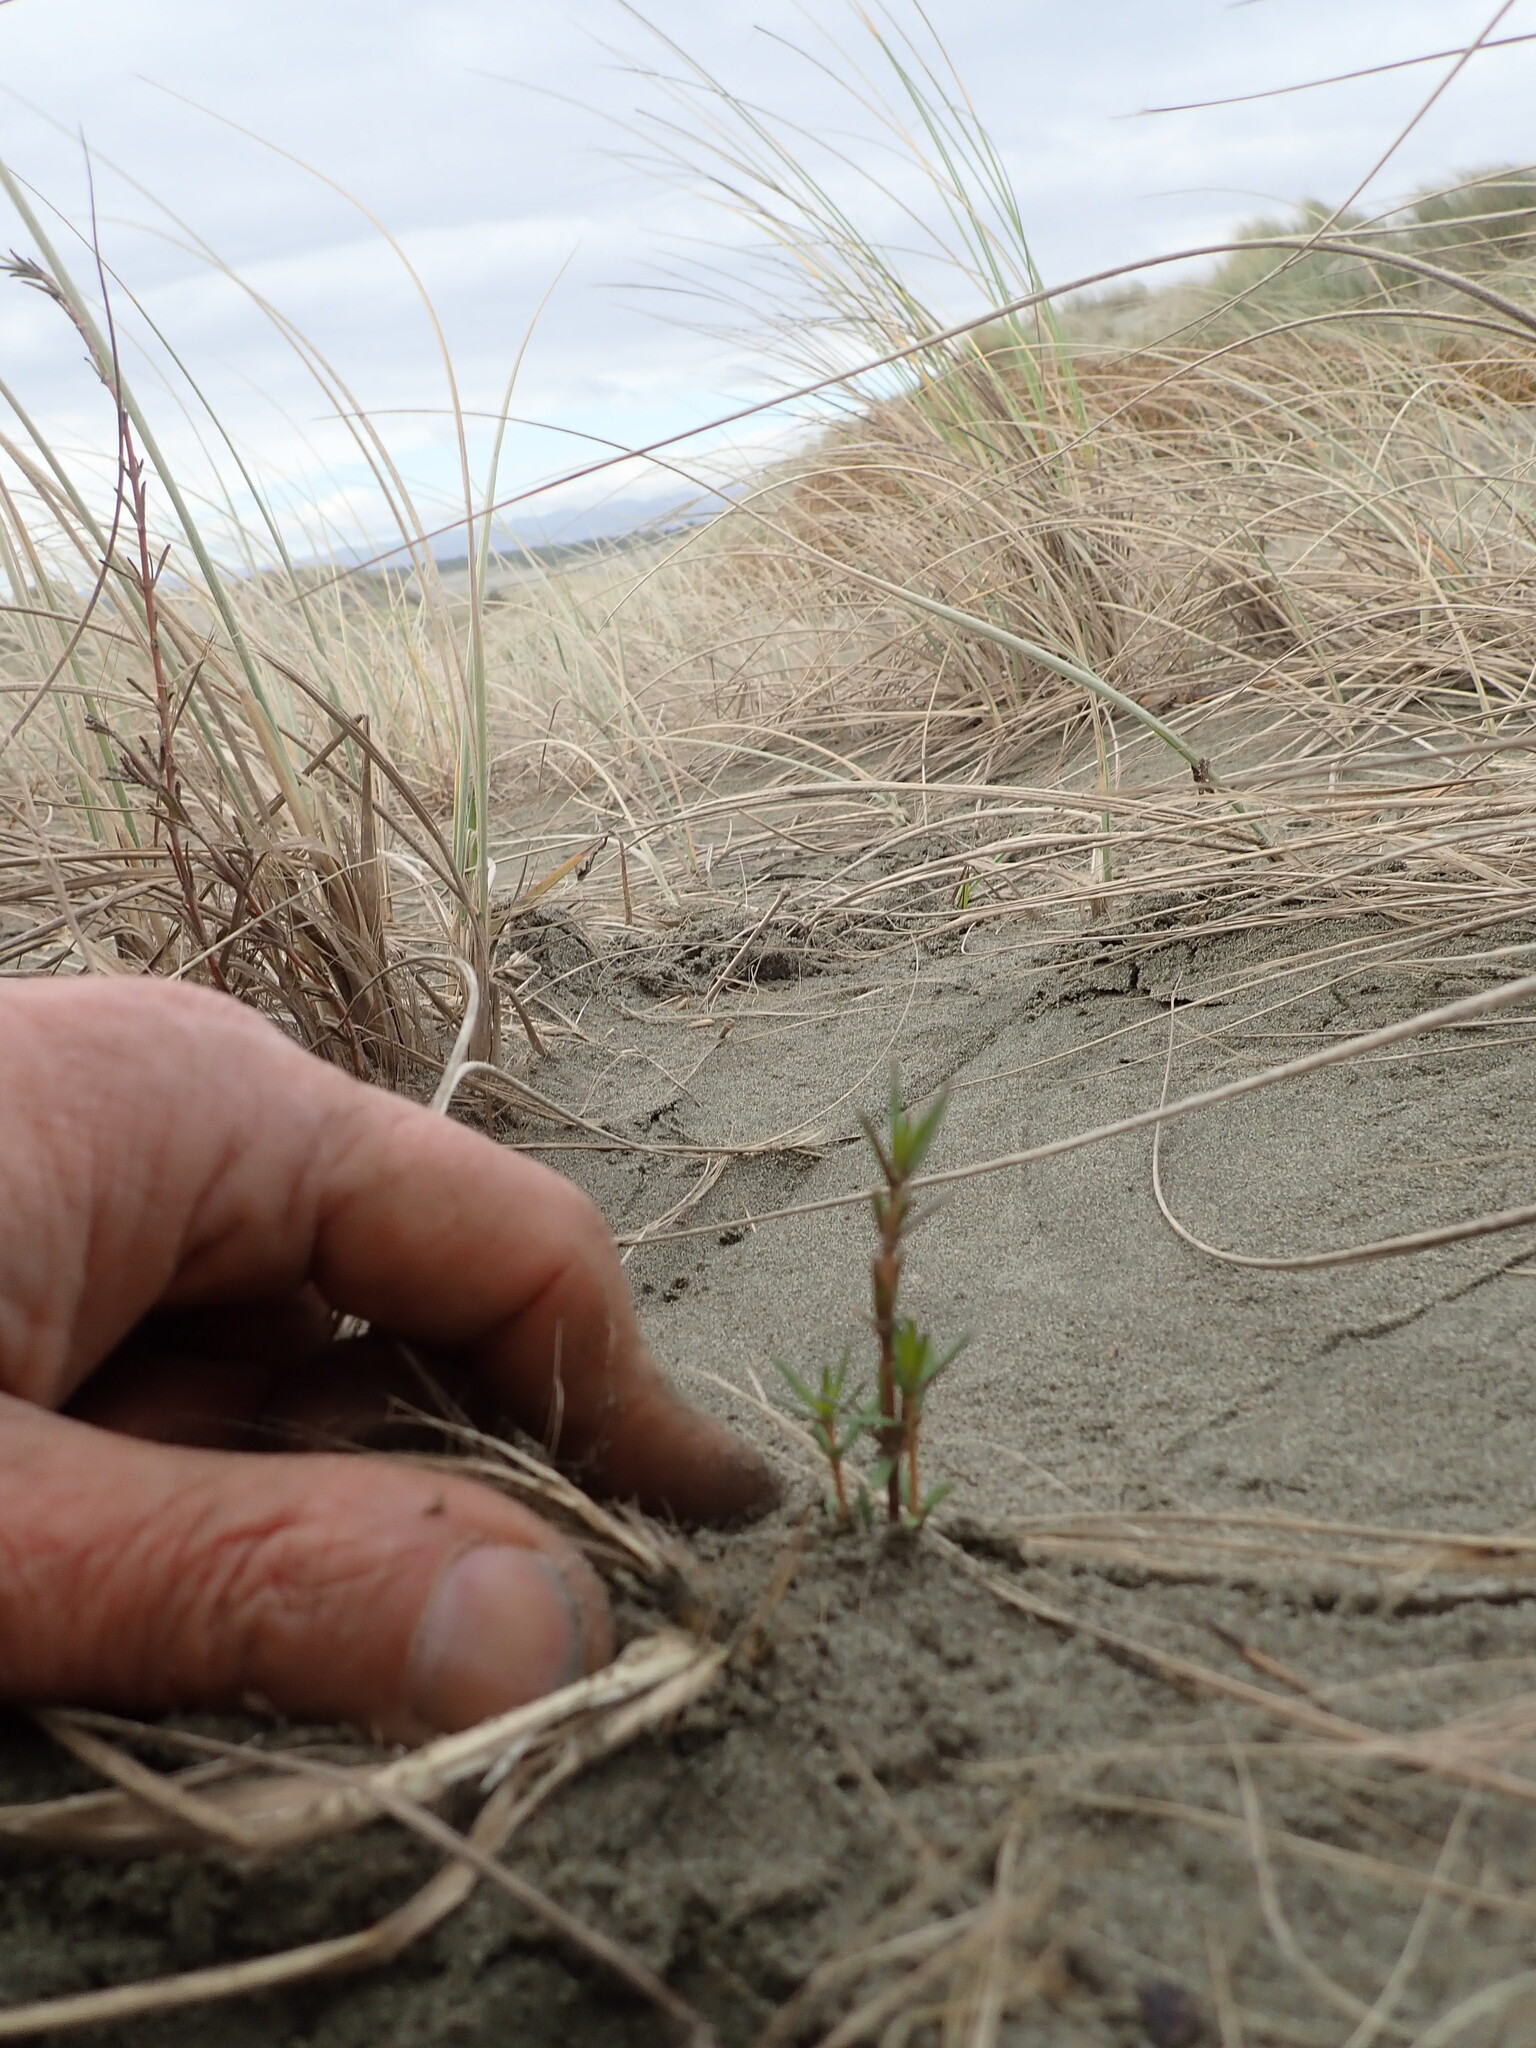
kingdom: Plantae
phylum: Tracheophyta
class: Magnoliopsida
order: Gentianales
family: Rubiaceae
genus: Coprosma
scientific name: Coprosma acerosa
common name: Sand coprosma
